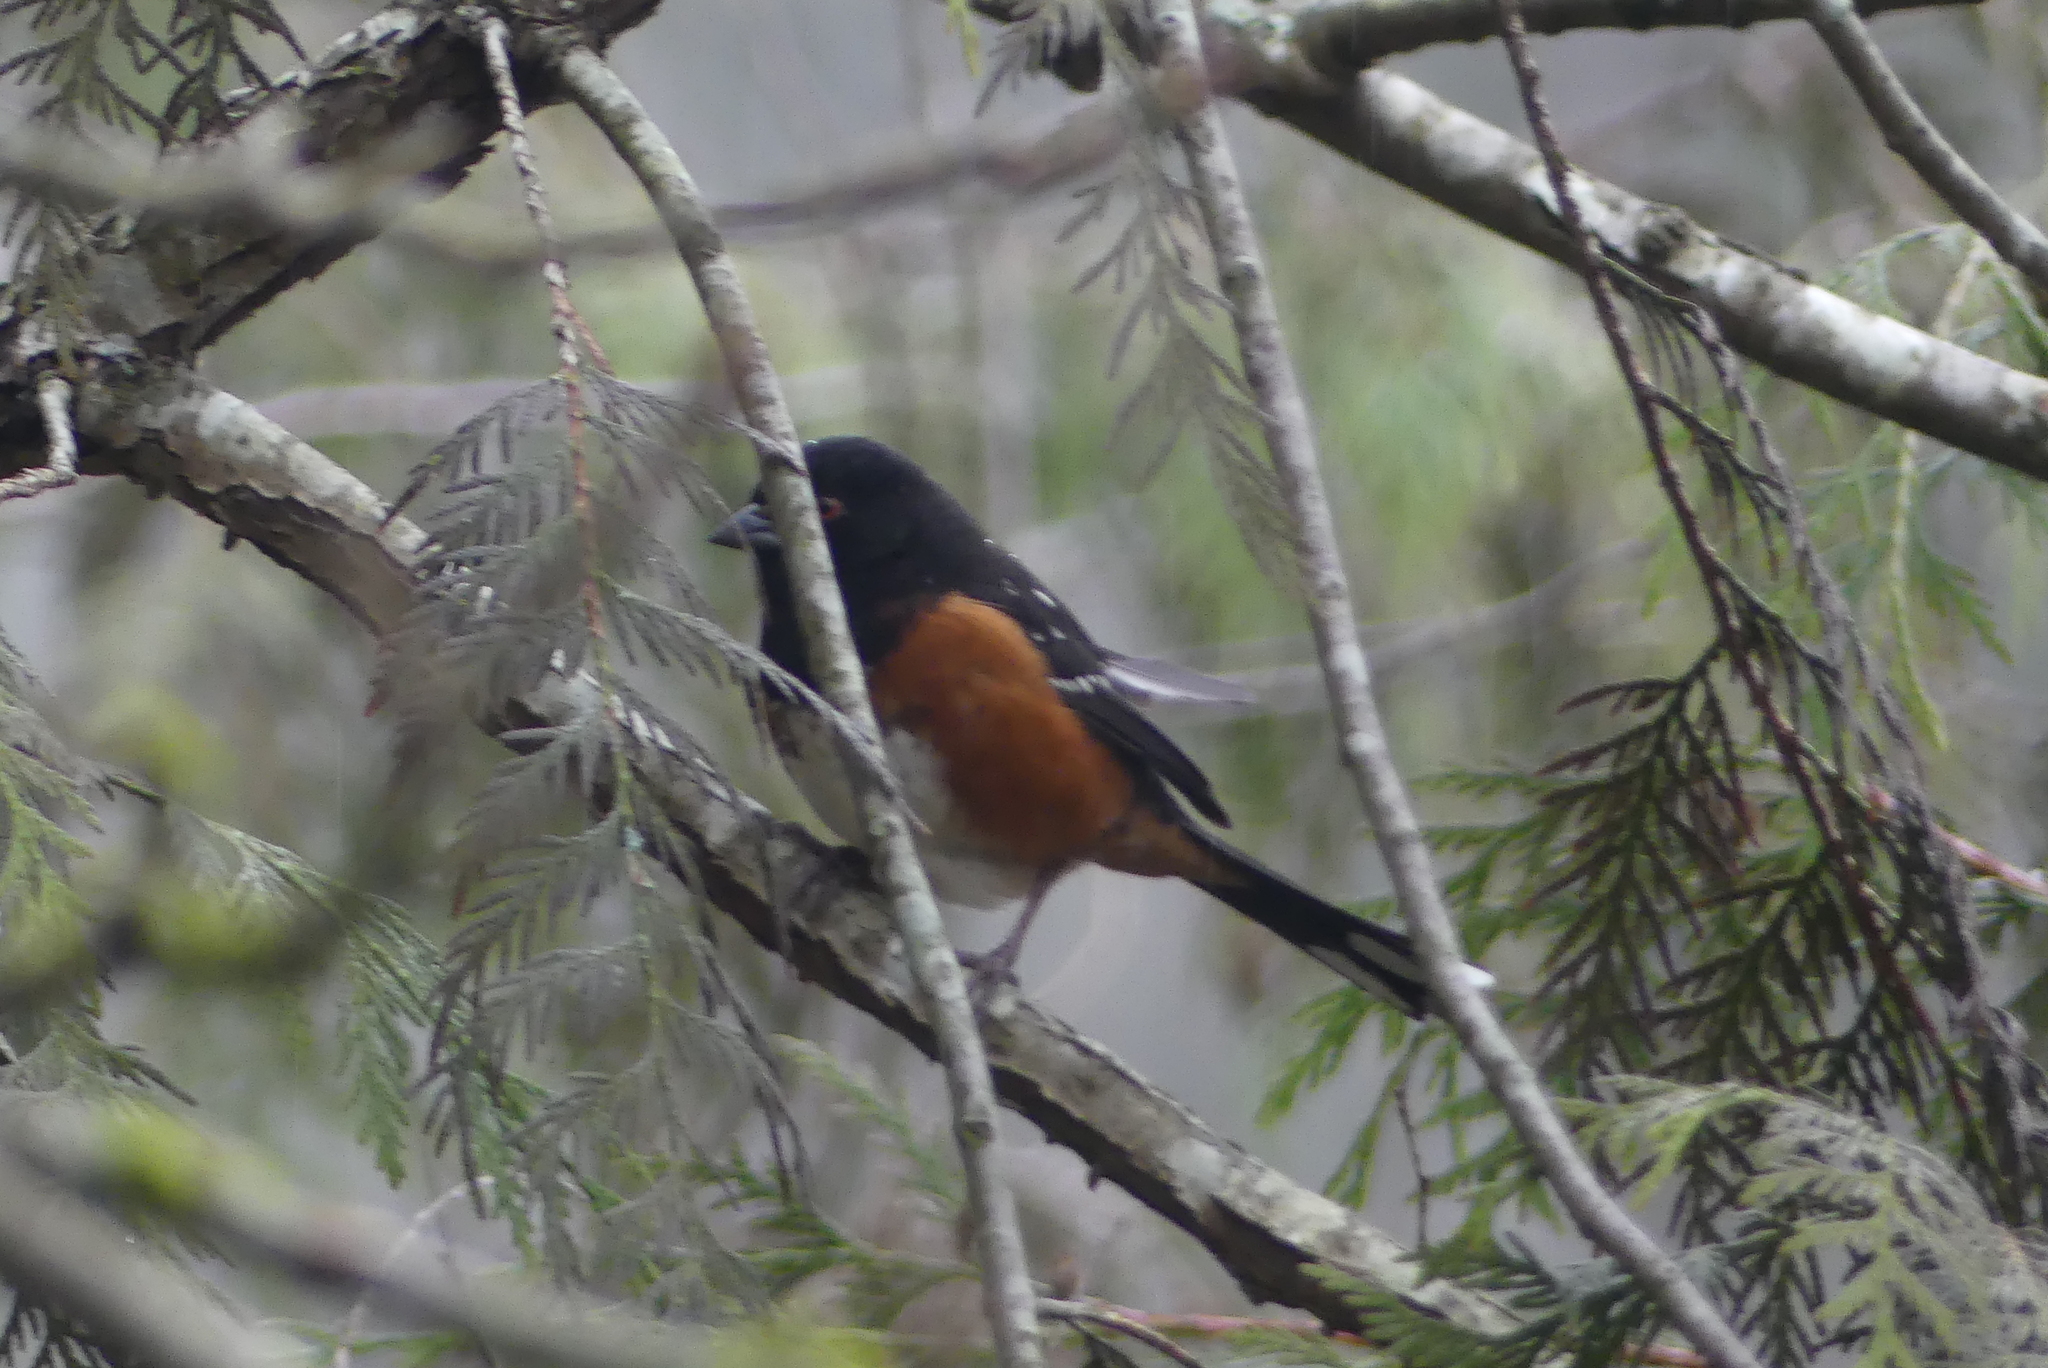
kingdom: Animalia
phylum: Chordata
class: Aves
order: Passeriformes
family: Passerellidae
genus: Pipilo
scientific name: Pipilo maculatus
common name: Spotted towhee
